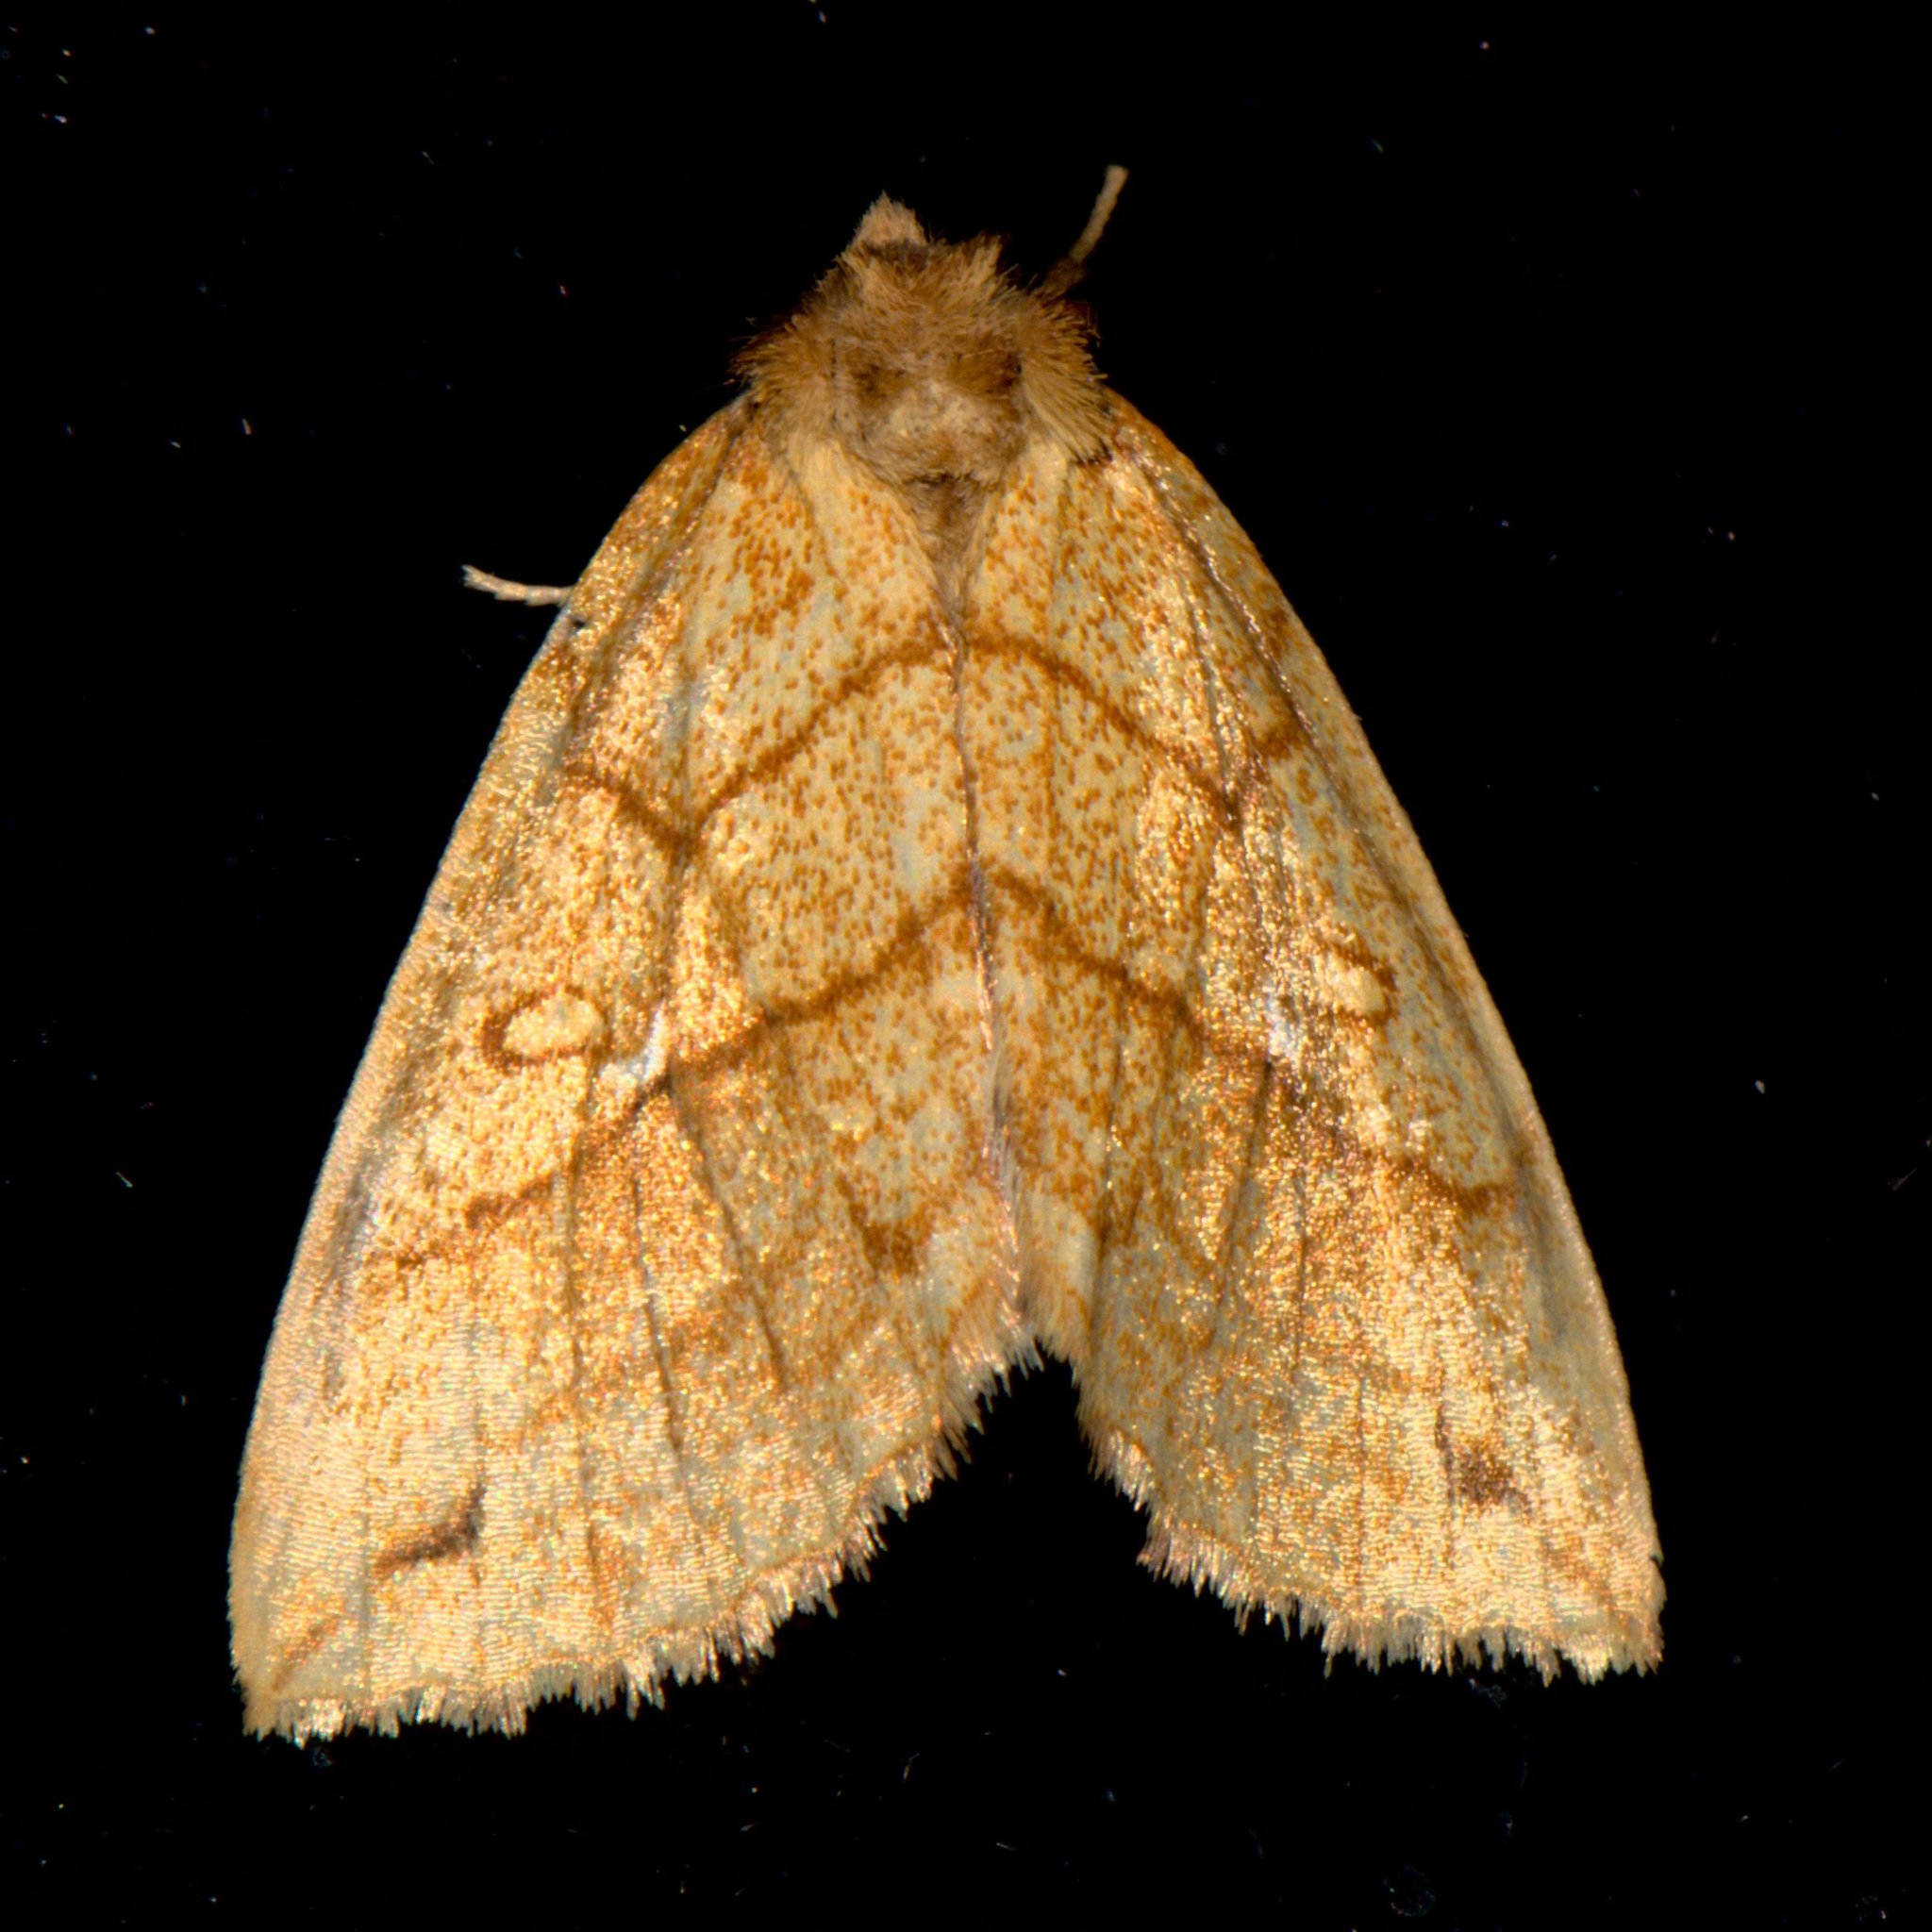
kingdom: Animalia
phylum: Arthropoda
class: Insecta
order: Lepidoptera
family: Noctuidae
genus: Xanthia
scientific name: Xanthia rectilineata
